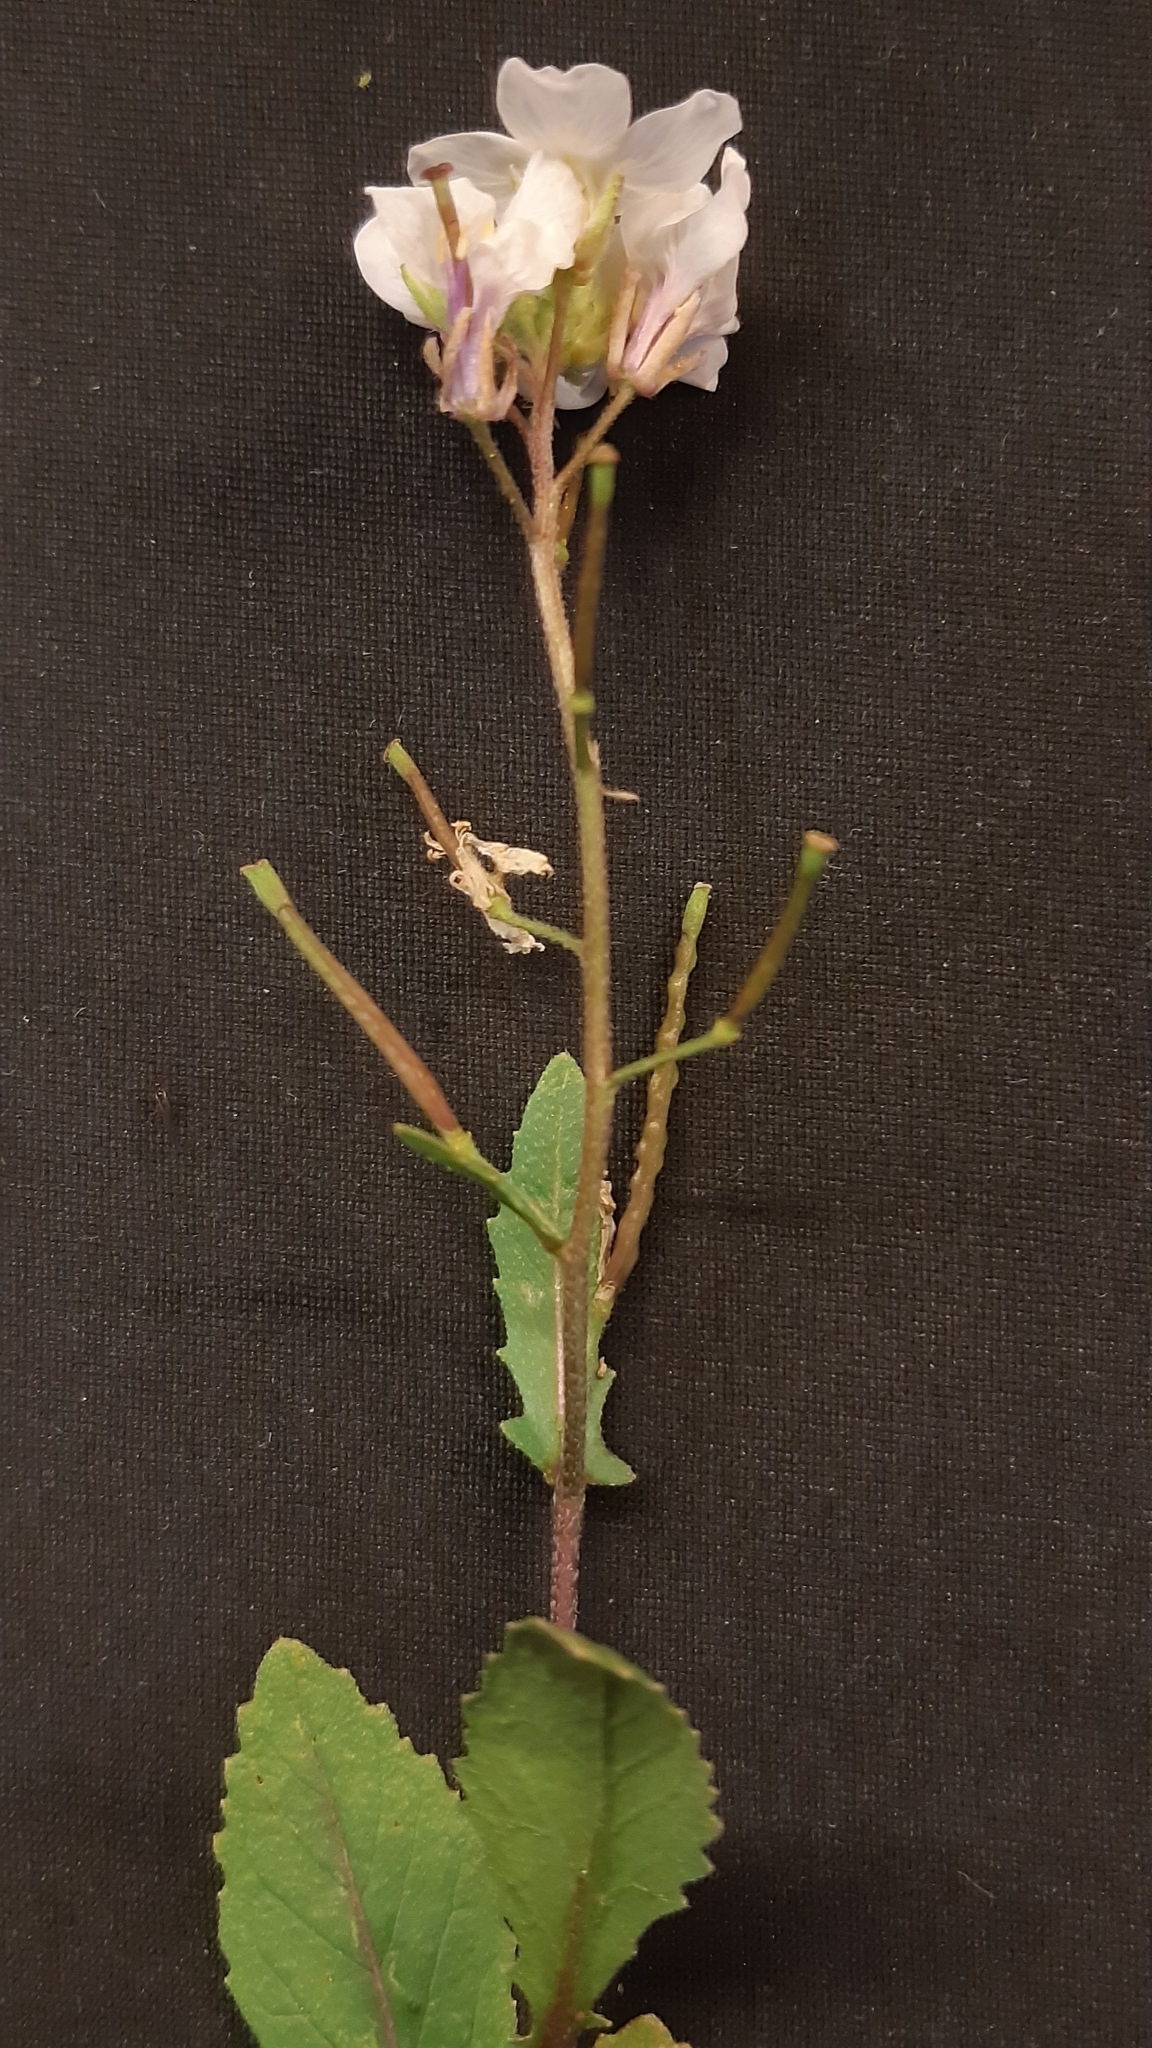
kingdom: Plantae
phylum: Tracheophyta
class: Magnoliopsida
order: Brassicales
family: Brassicaceae
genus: Diplotaxis
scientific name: Diplotaxis erucoides
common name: White rocket
